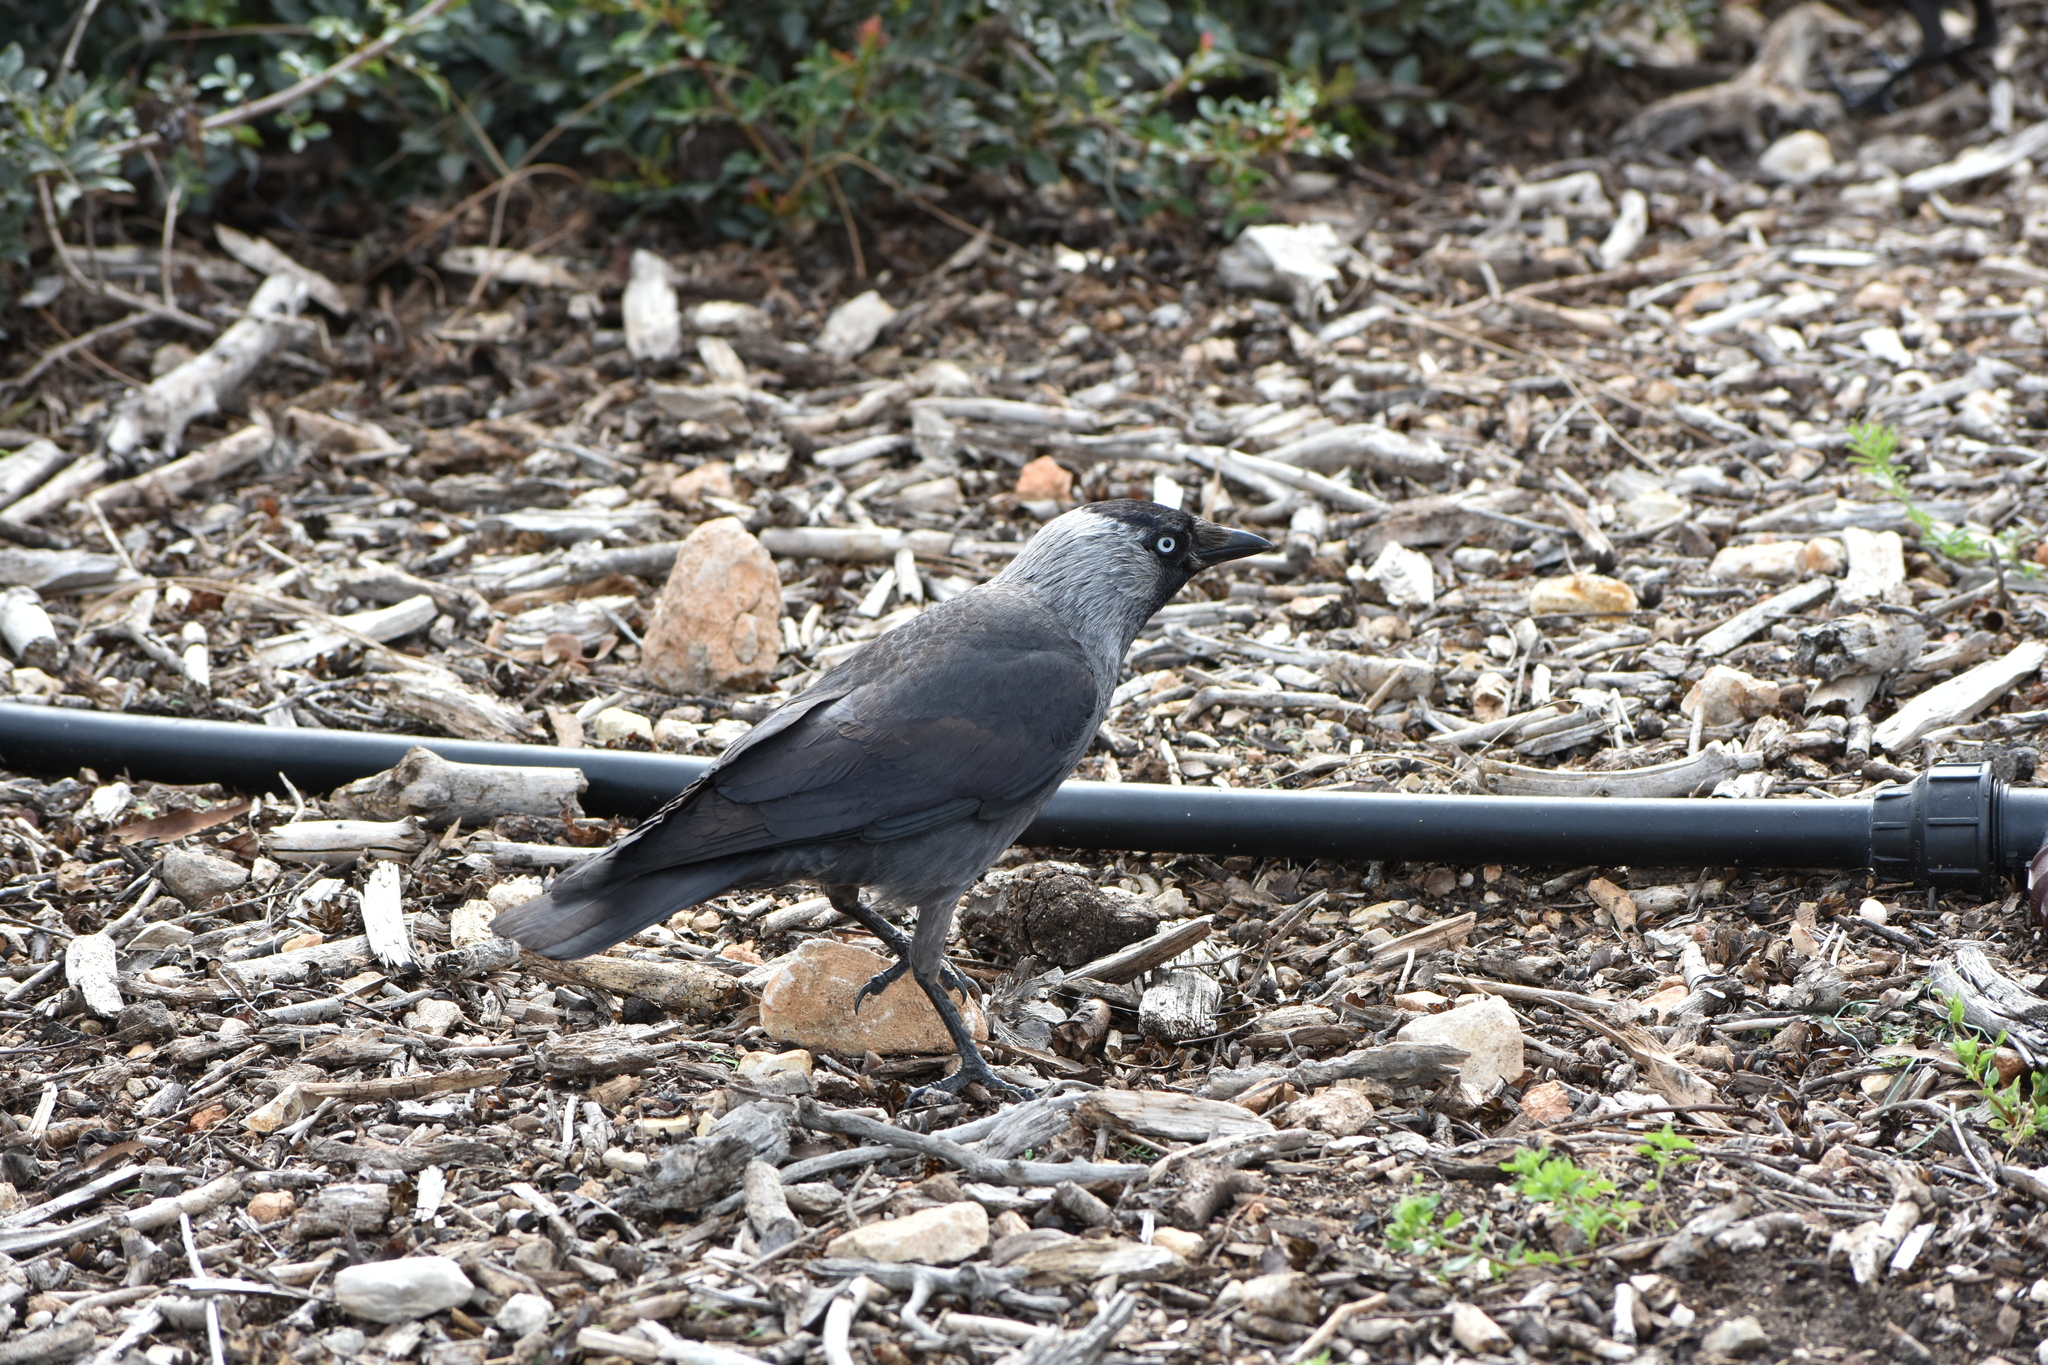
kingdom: Animalia
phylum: Chordata
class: Aves
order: Passeriformes
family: Corvidae
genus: Coloeus
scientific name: Coloeus monedula
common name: Western jackdaw
